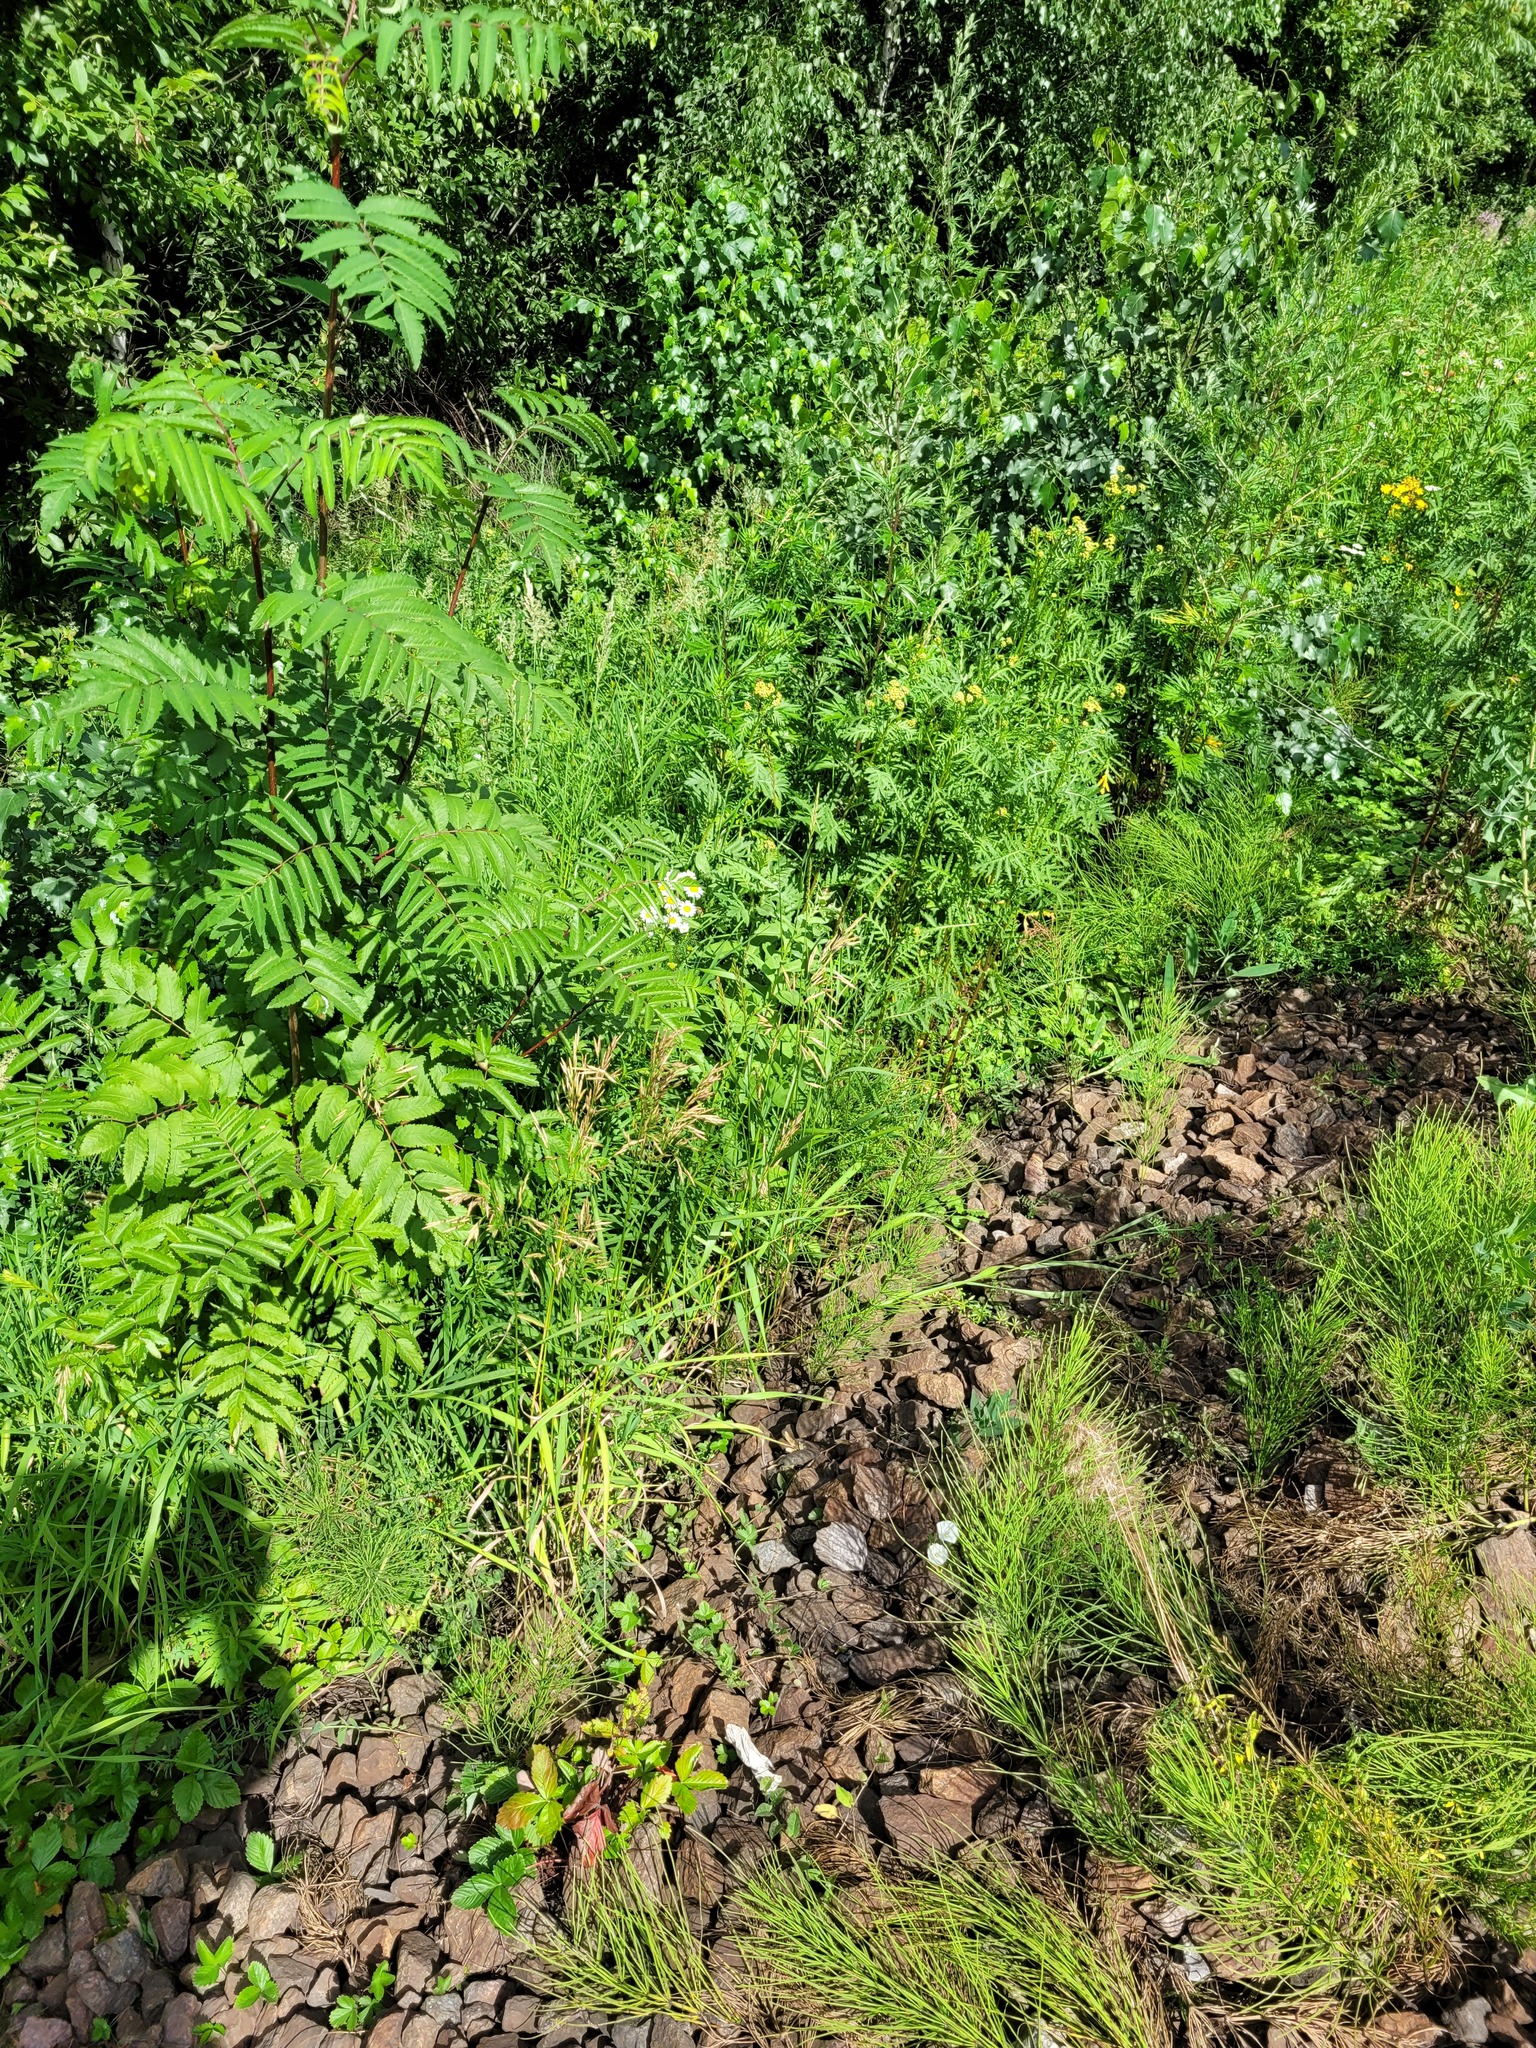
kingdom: Plantae
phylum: Tracheophyta
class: Liliopsida
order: Poales
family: Poaceae
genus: Bromus
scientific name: Bromus inermis
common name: Smooth brome
